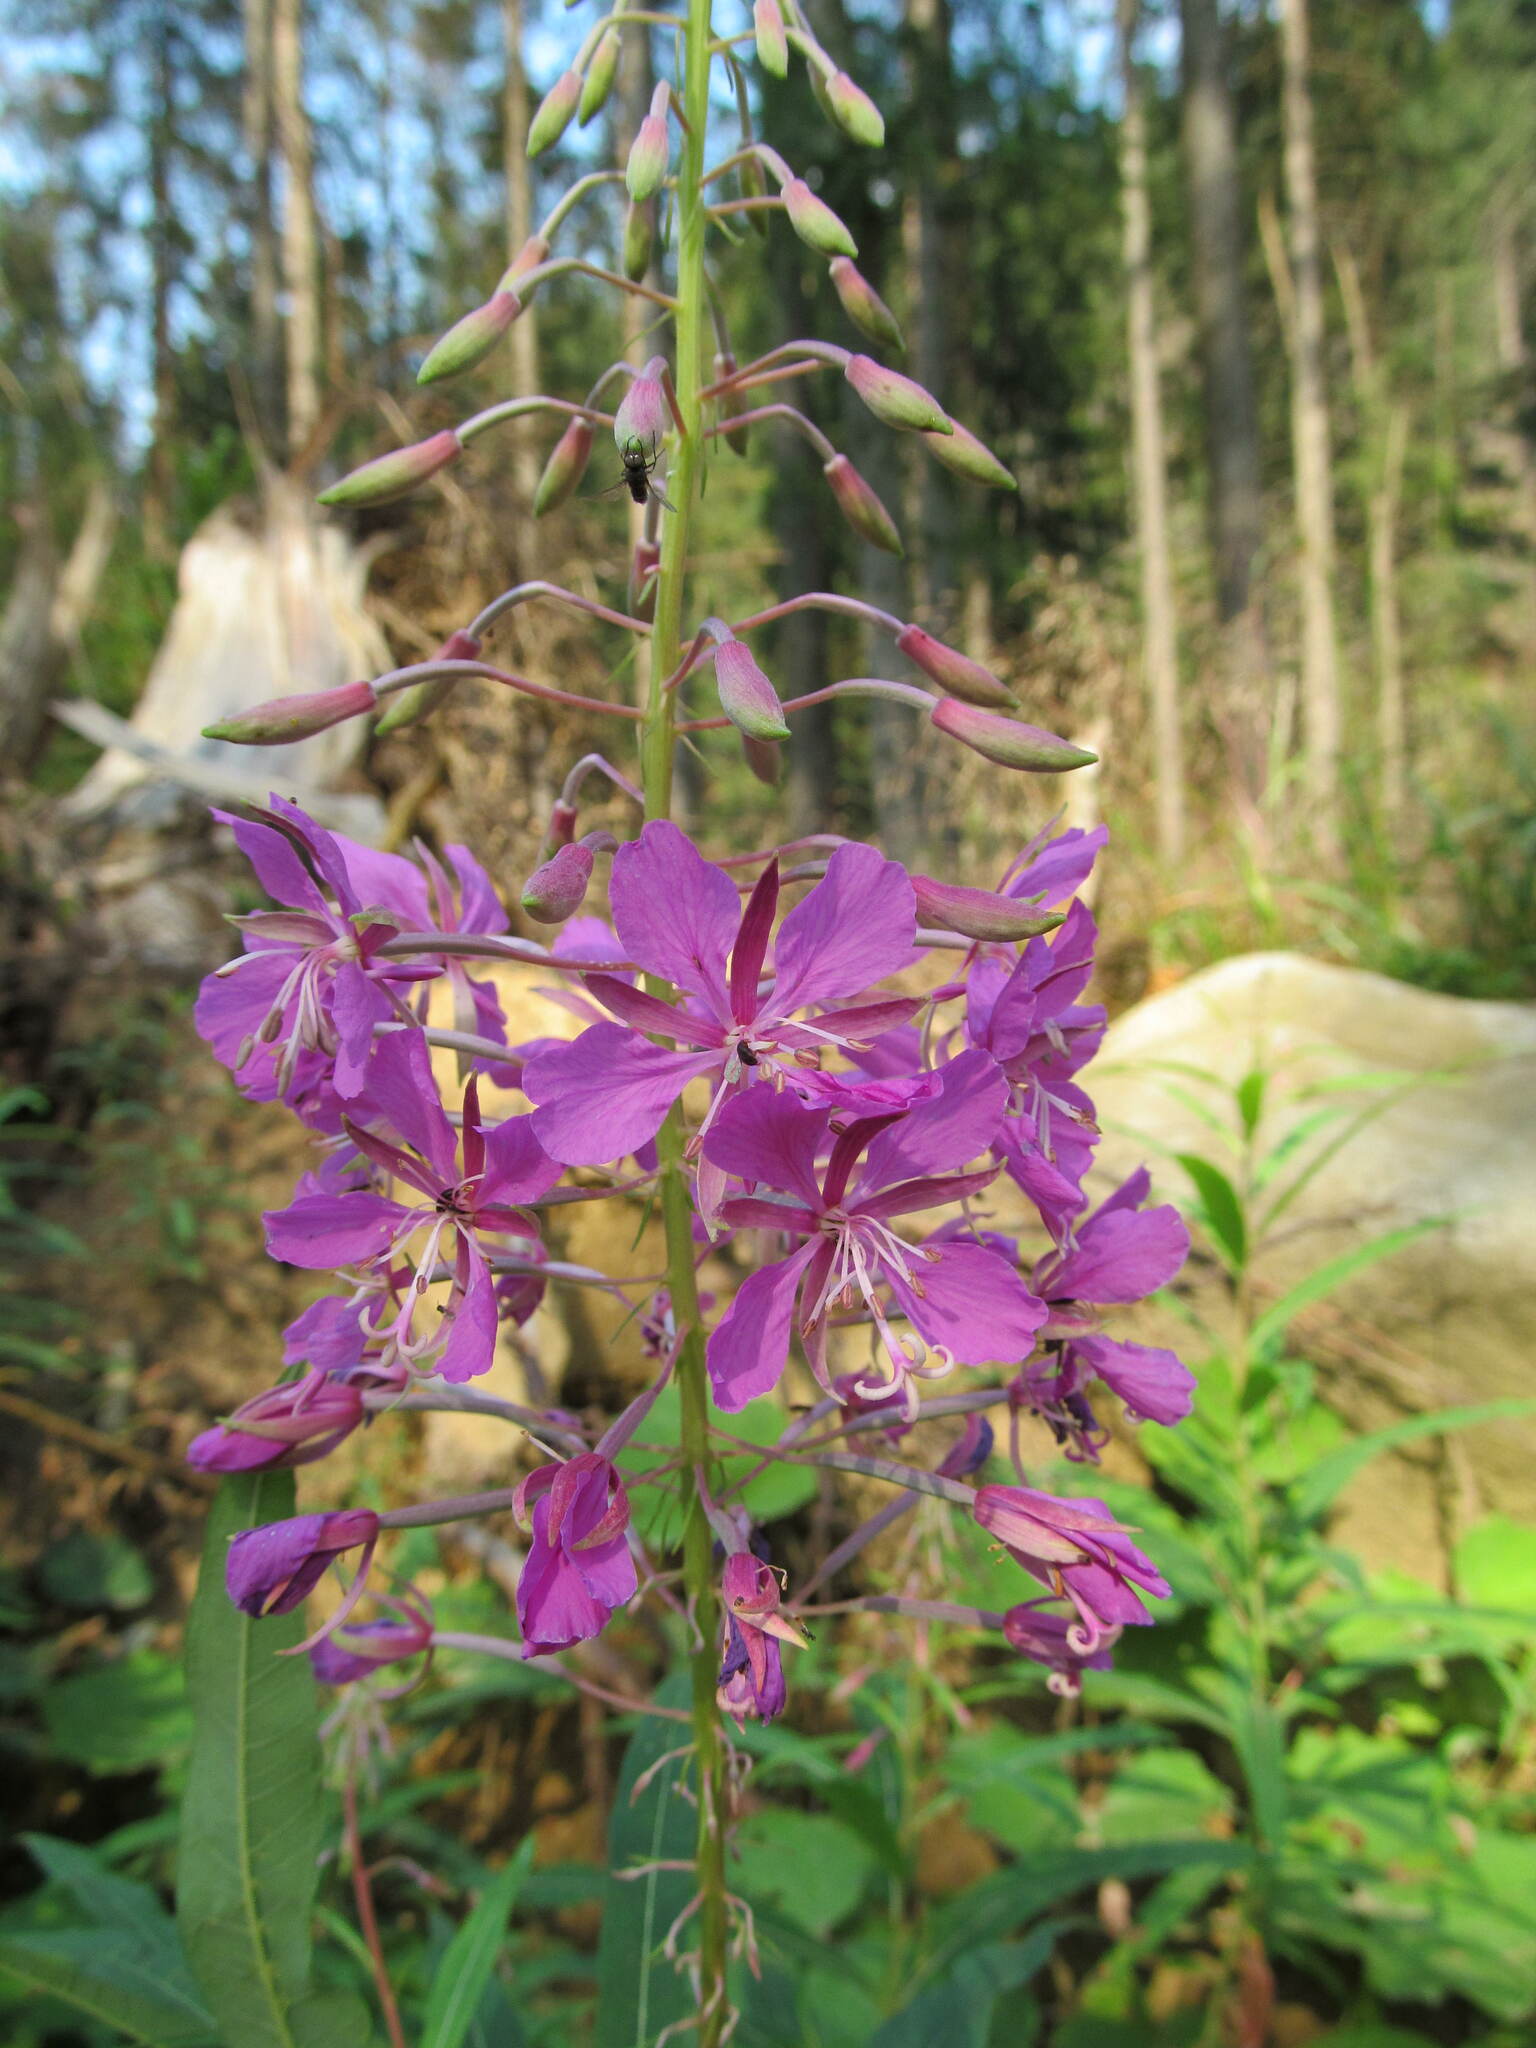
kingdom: Plantae
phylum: Tracheophyta
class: Magnoliopsida
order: Myrtales
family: Onagraceae
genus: Chamaenerion
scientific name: Chamaenerion angustifolium
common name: Fireweed
